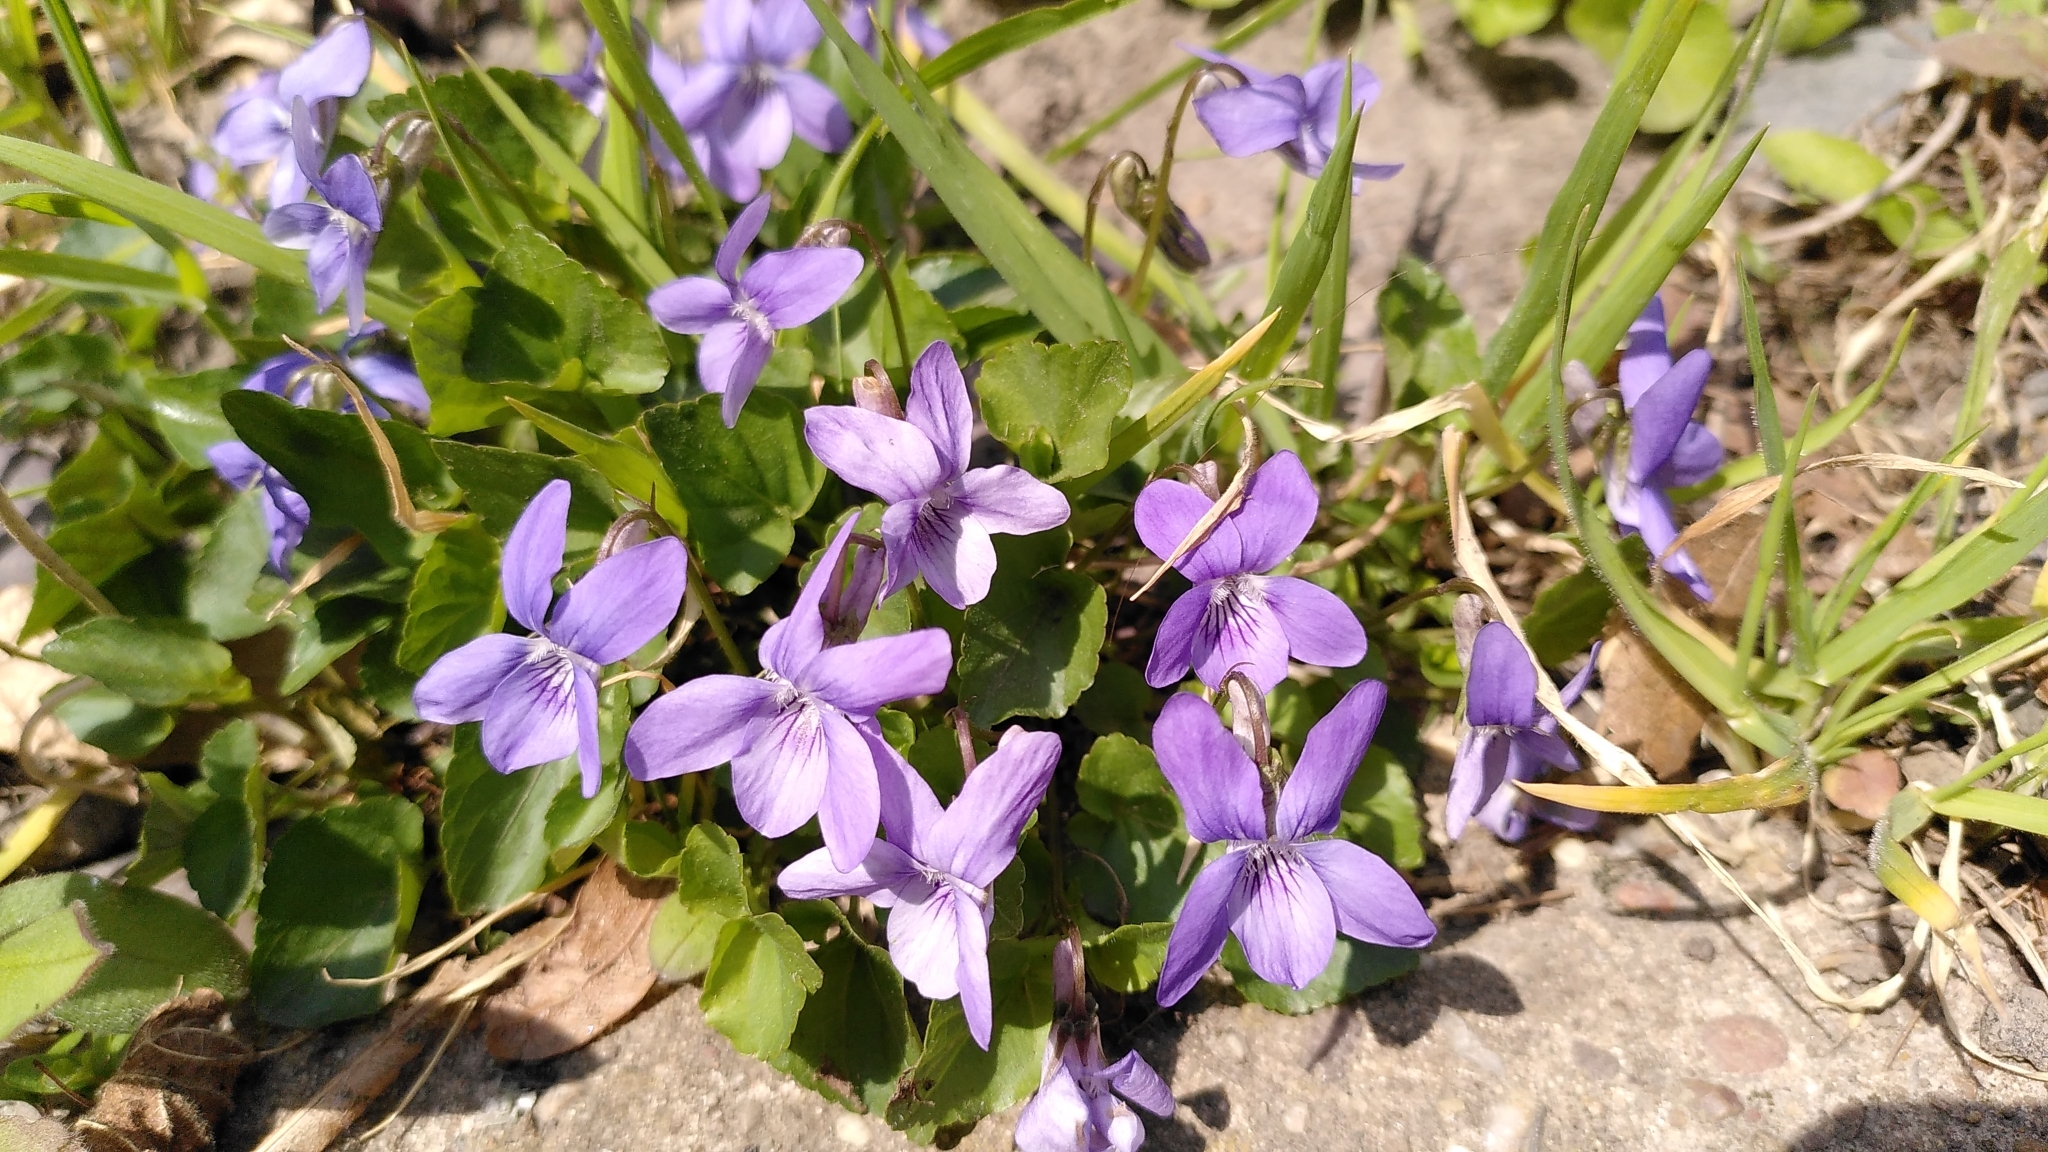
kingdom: Plantae
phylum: Tracheophyta
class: Magnoliopsida
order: Malpighiales
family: Violaceae
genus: Viola
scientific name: Viola riviniana
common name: Common dog-violet
